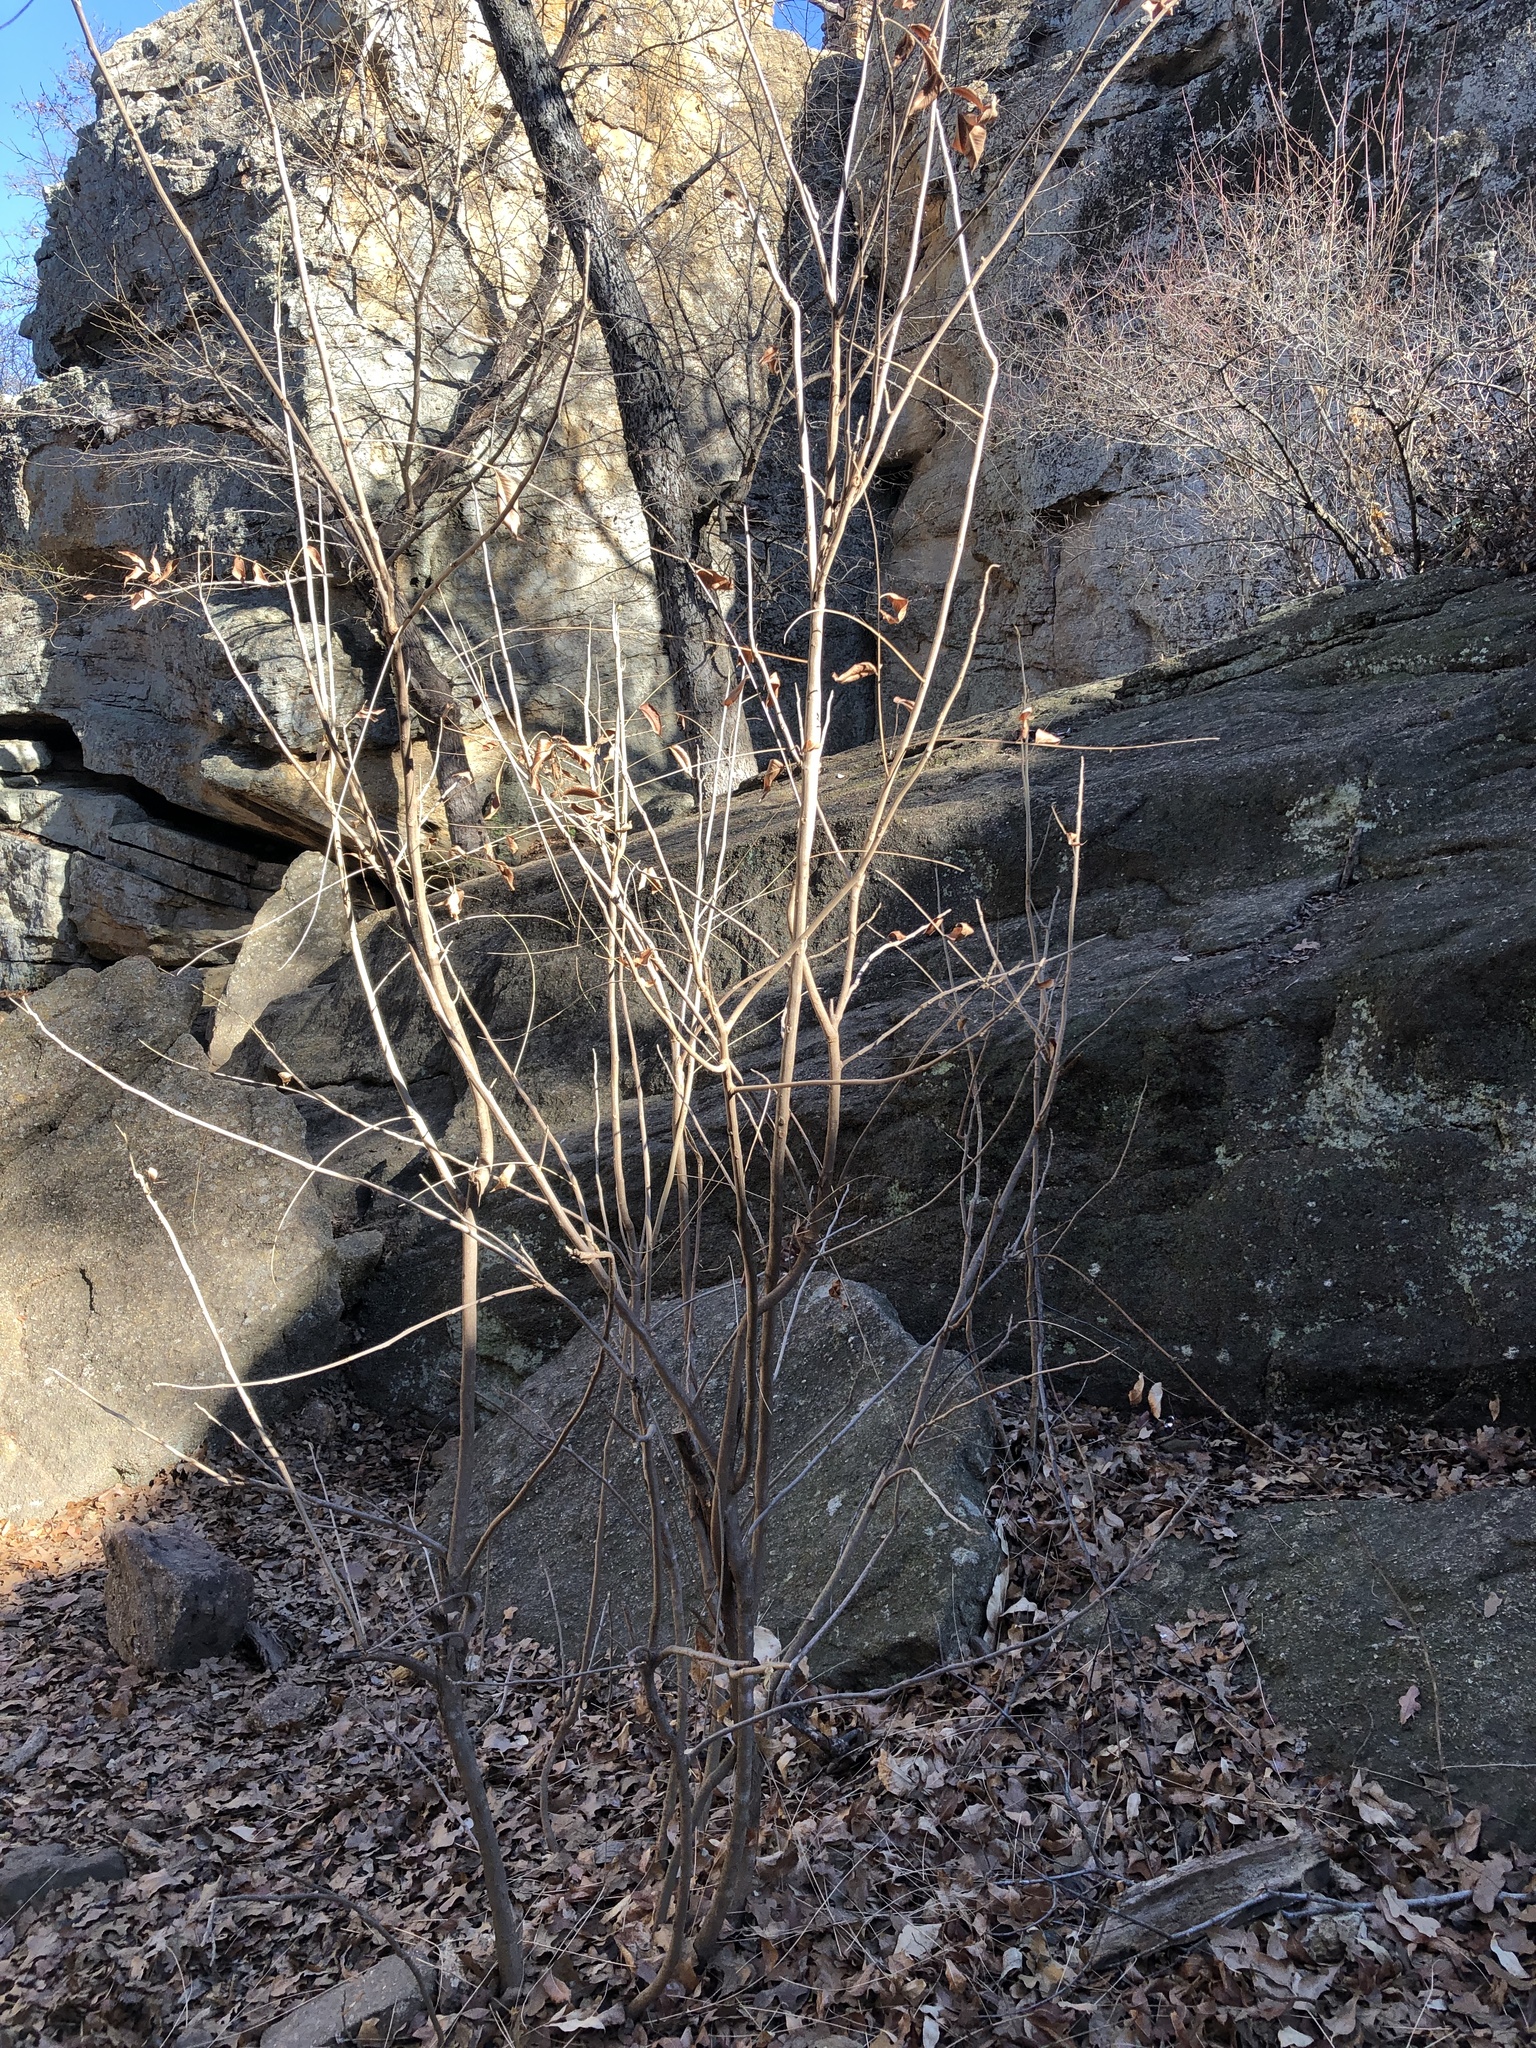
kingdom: Plantae
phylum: Tracheophyta
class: Magnoliopsida
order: Fagales
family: Juglandaceae
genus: Carya
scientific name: Carya ovata
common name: Shagbark hickory
